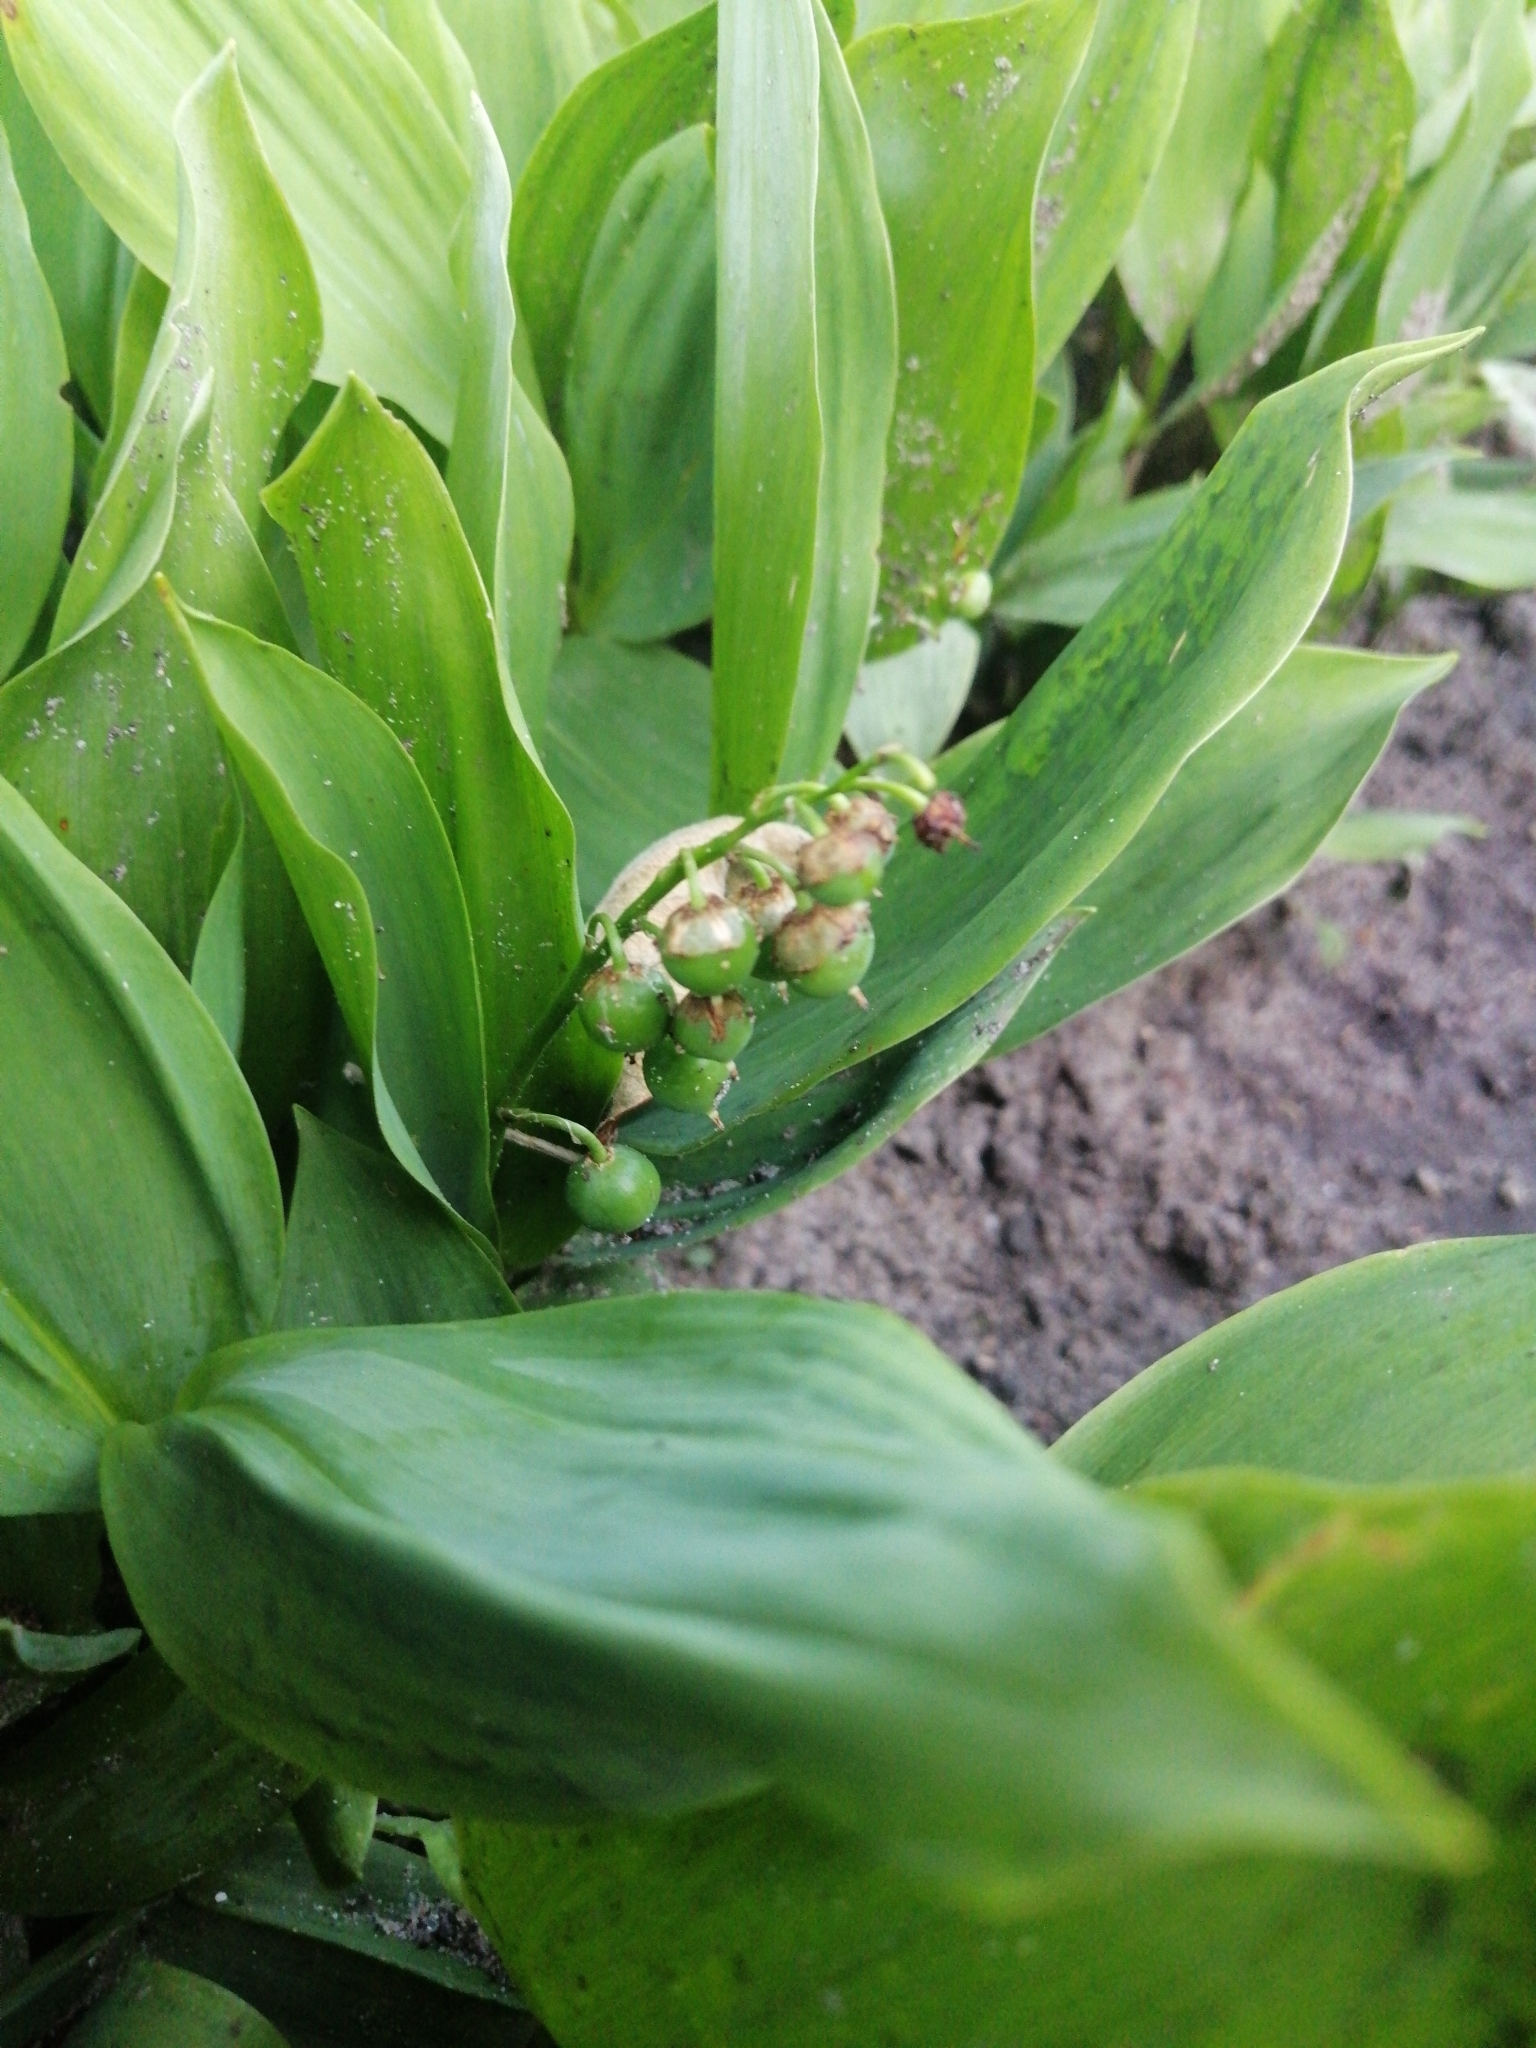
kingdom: Plantae
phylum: Tracheophyta
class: Liliopsida
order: Asparagales
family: Asparagaceae
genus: Convallaria
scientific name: Convallaria majalis
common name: Lily-of-the-valley
